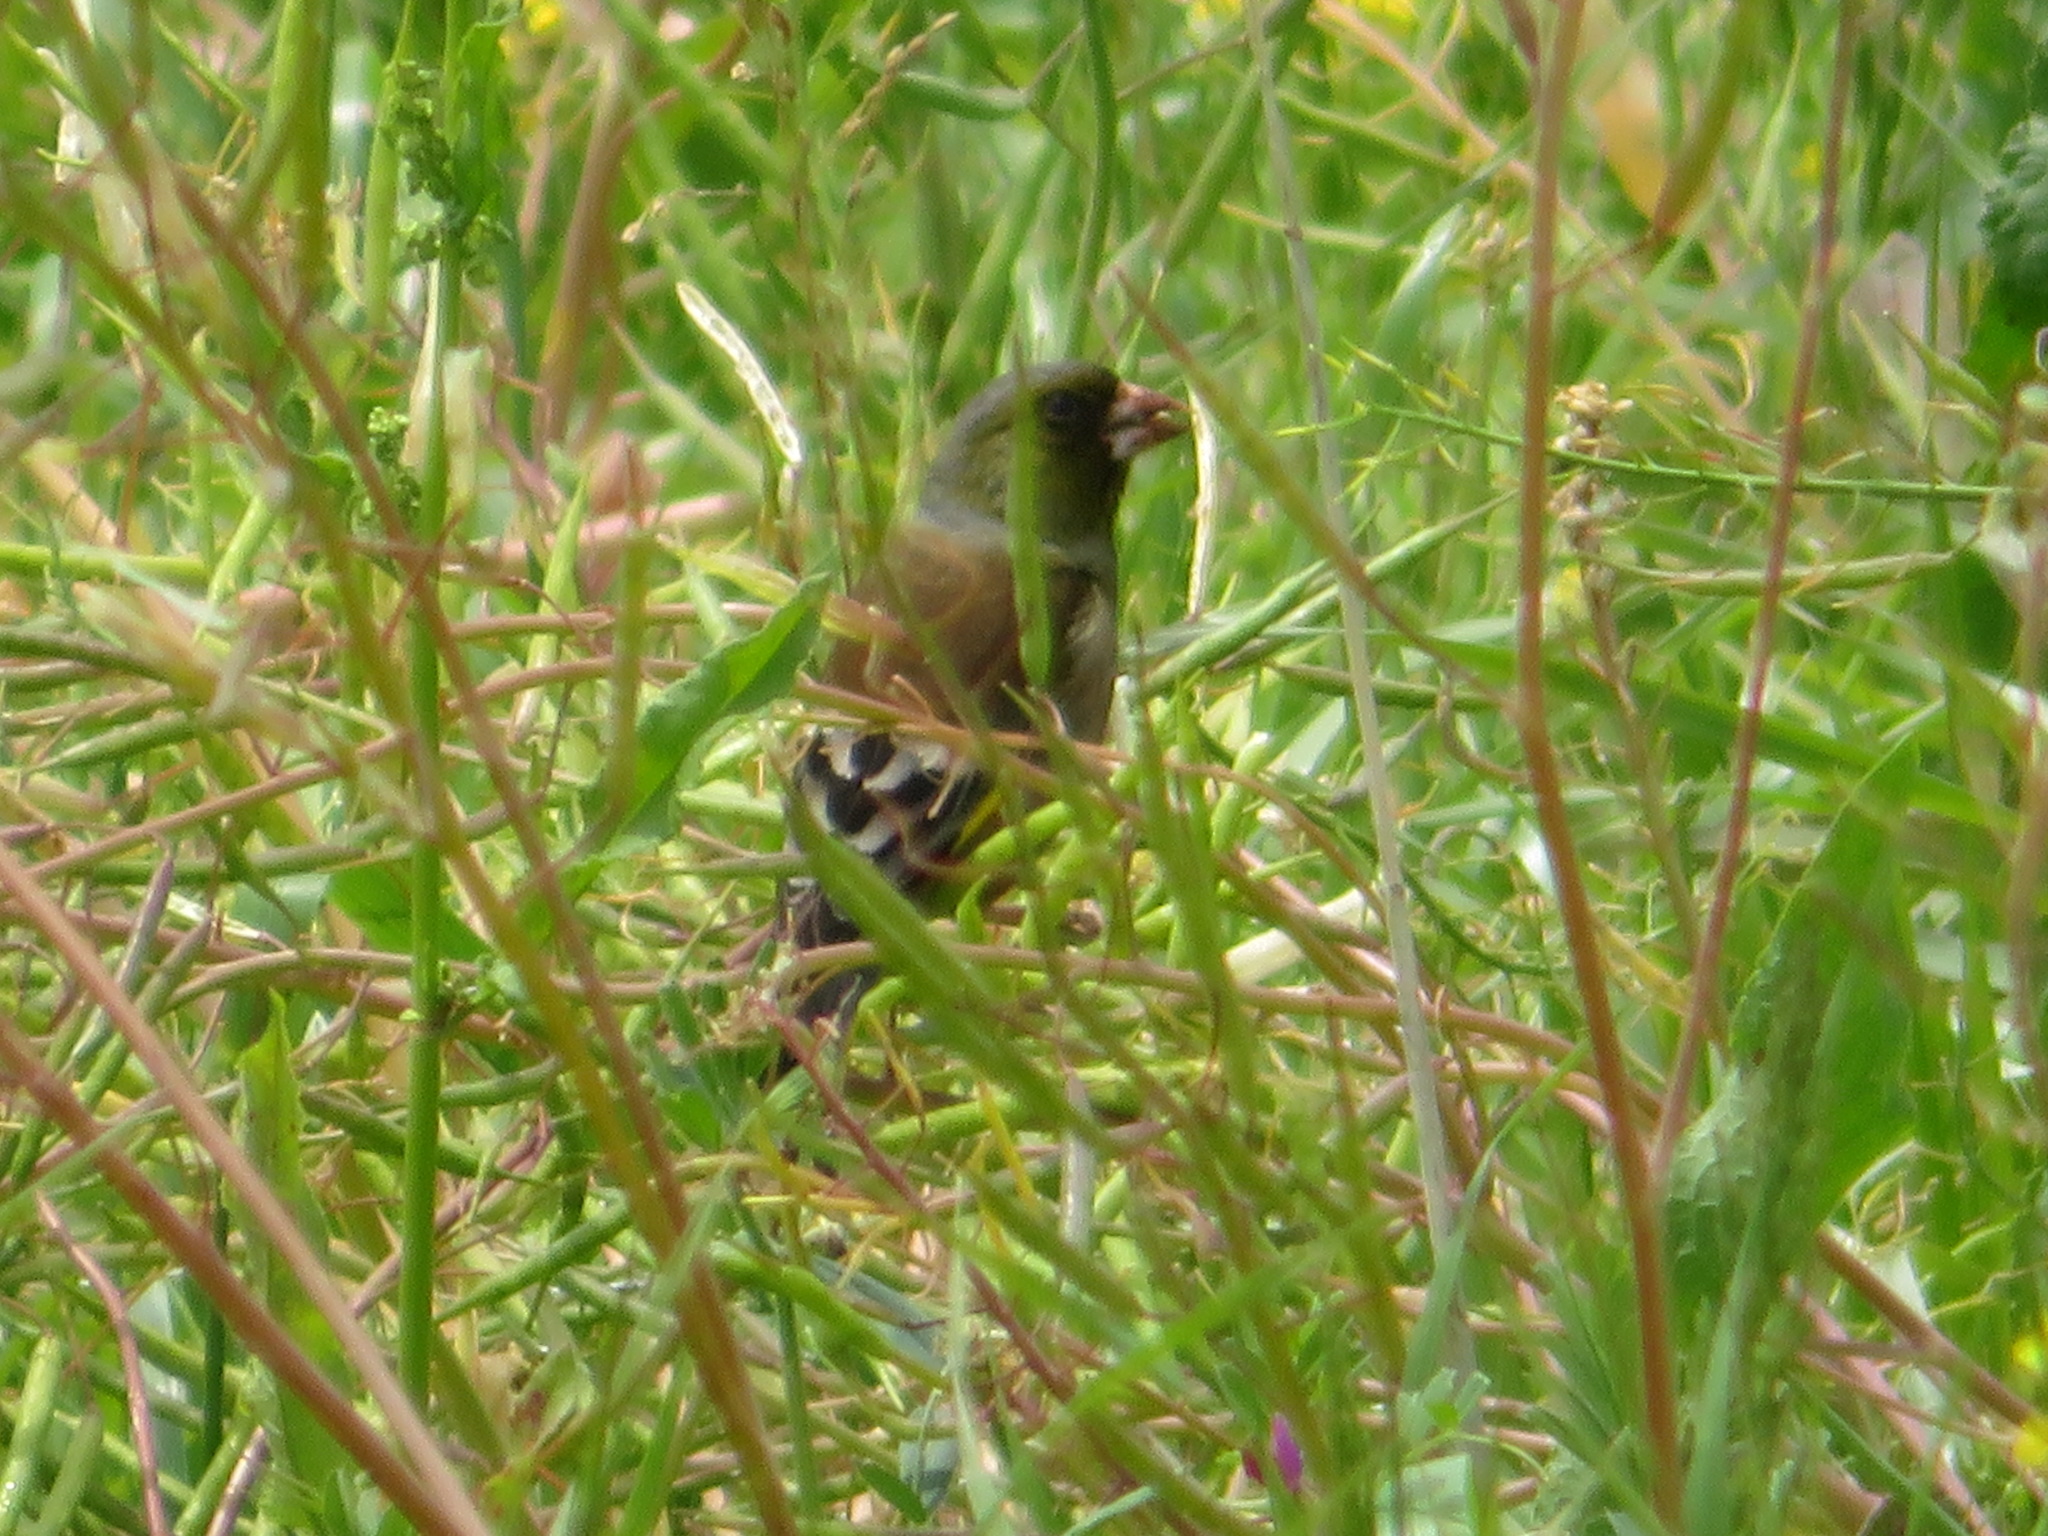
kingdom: Plantae
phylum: Tracheophyta
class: Liliopsida
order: Poales
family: Poaceae
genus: Chloris
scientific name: Chloris sinica
